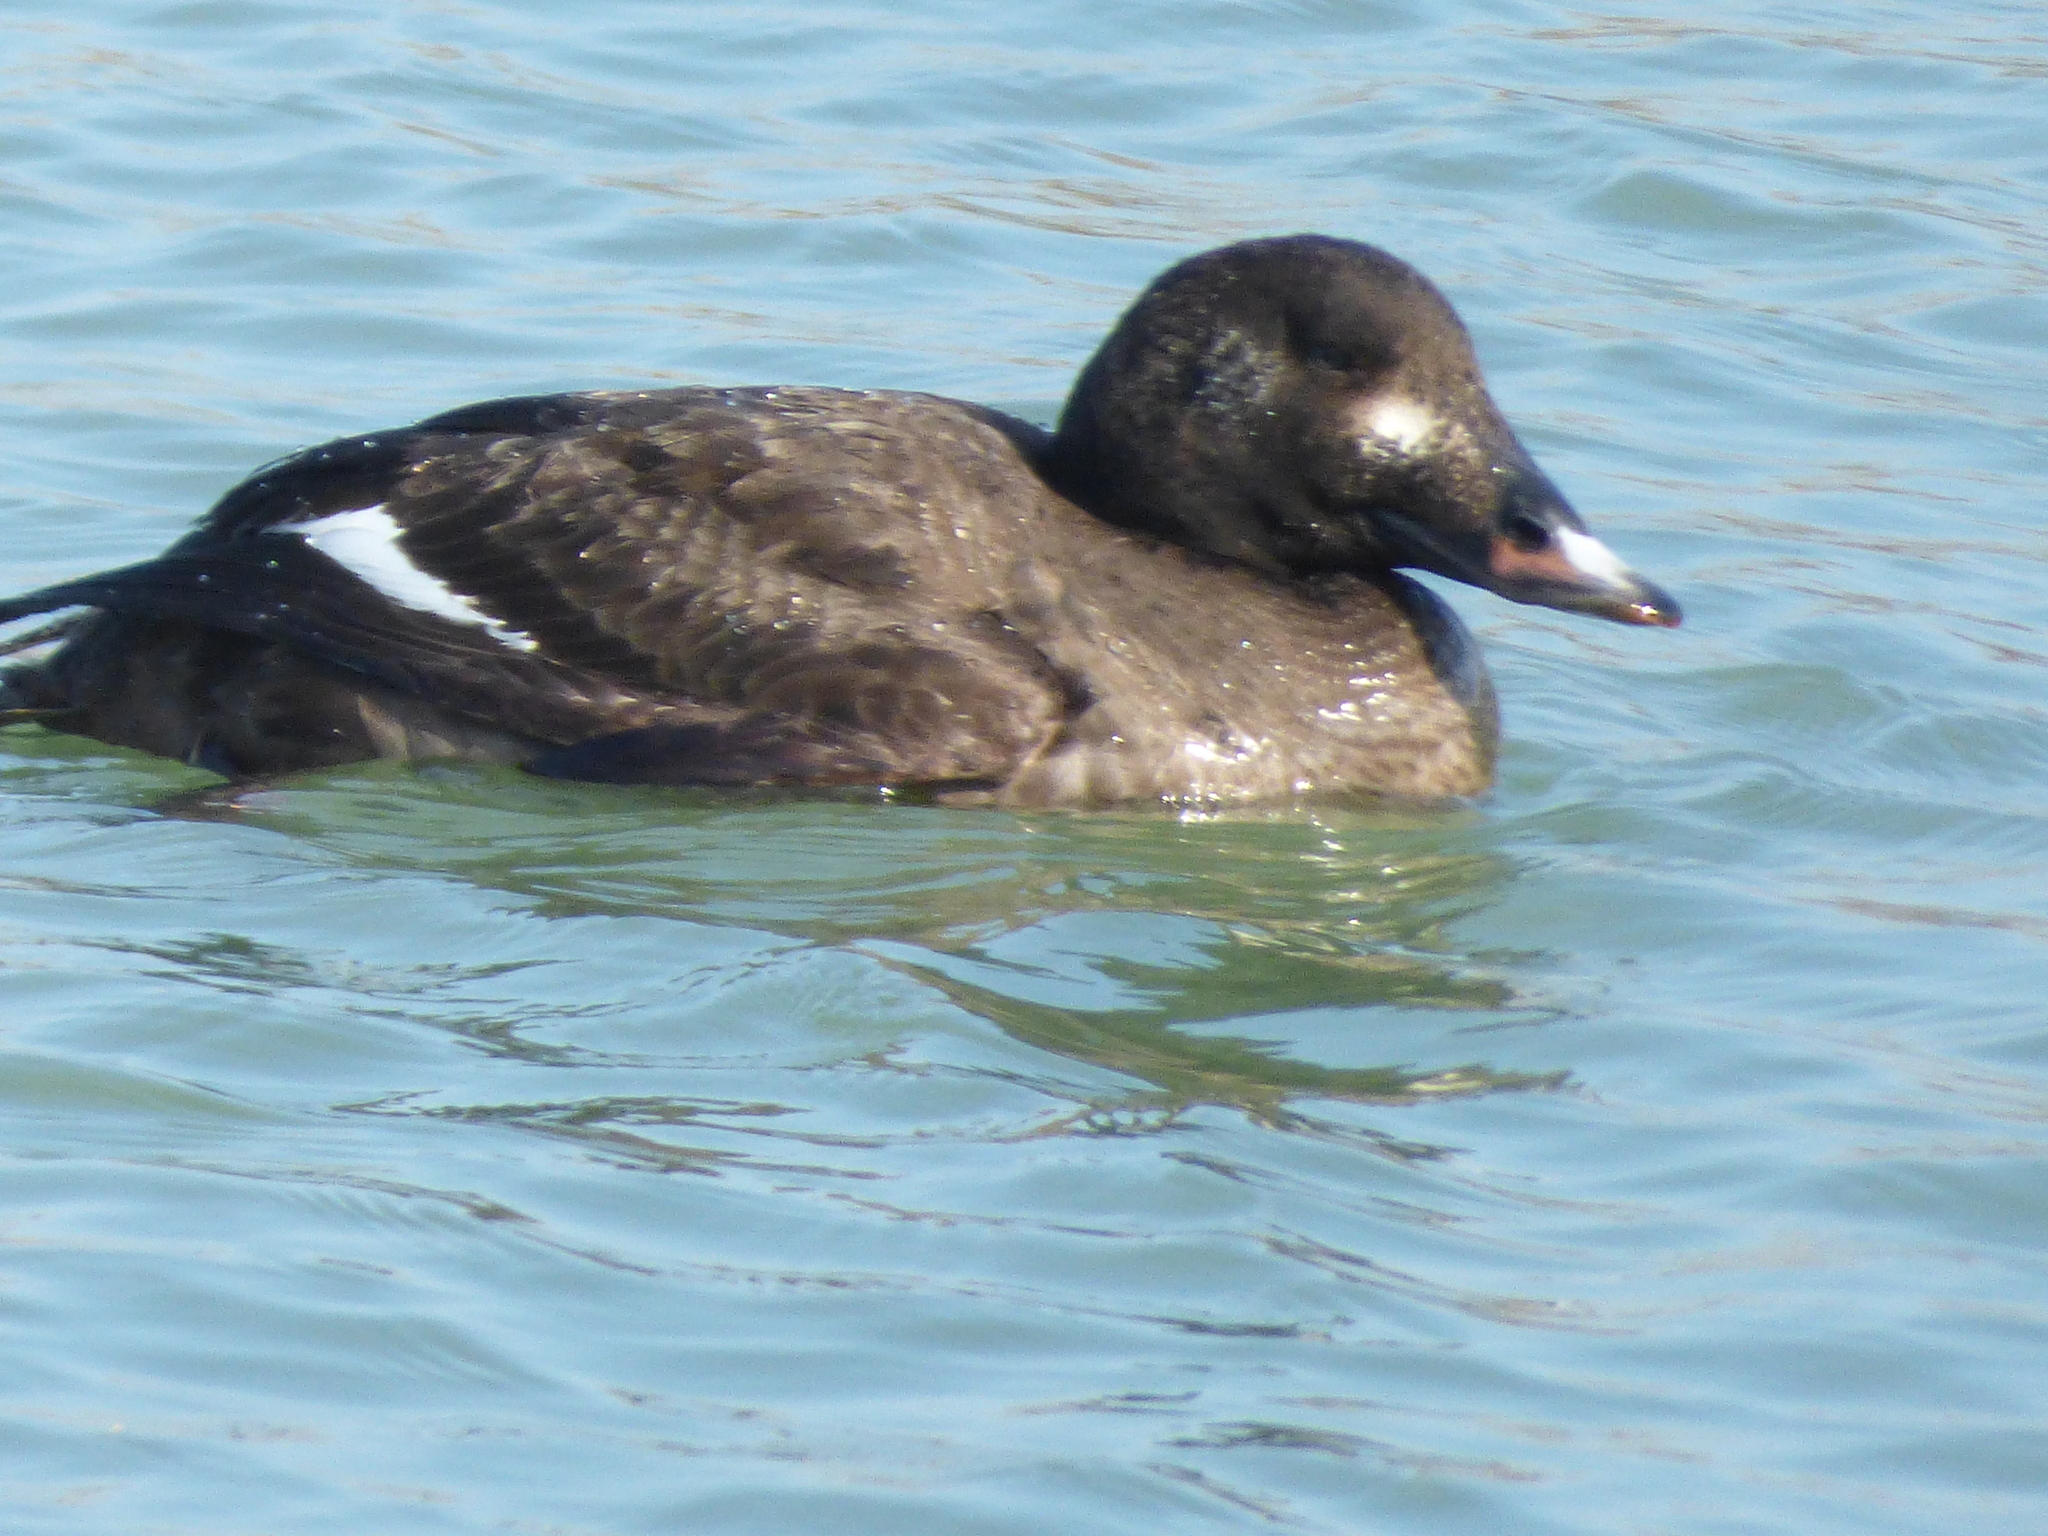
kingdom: Animalia
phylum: Chordata
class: Aves
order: Anseriformes
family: Anatidae
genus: Melanitta
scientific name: Melanitta deglandi
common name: White-winged scoter
